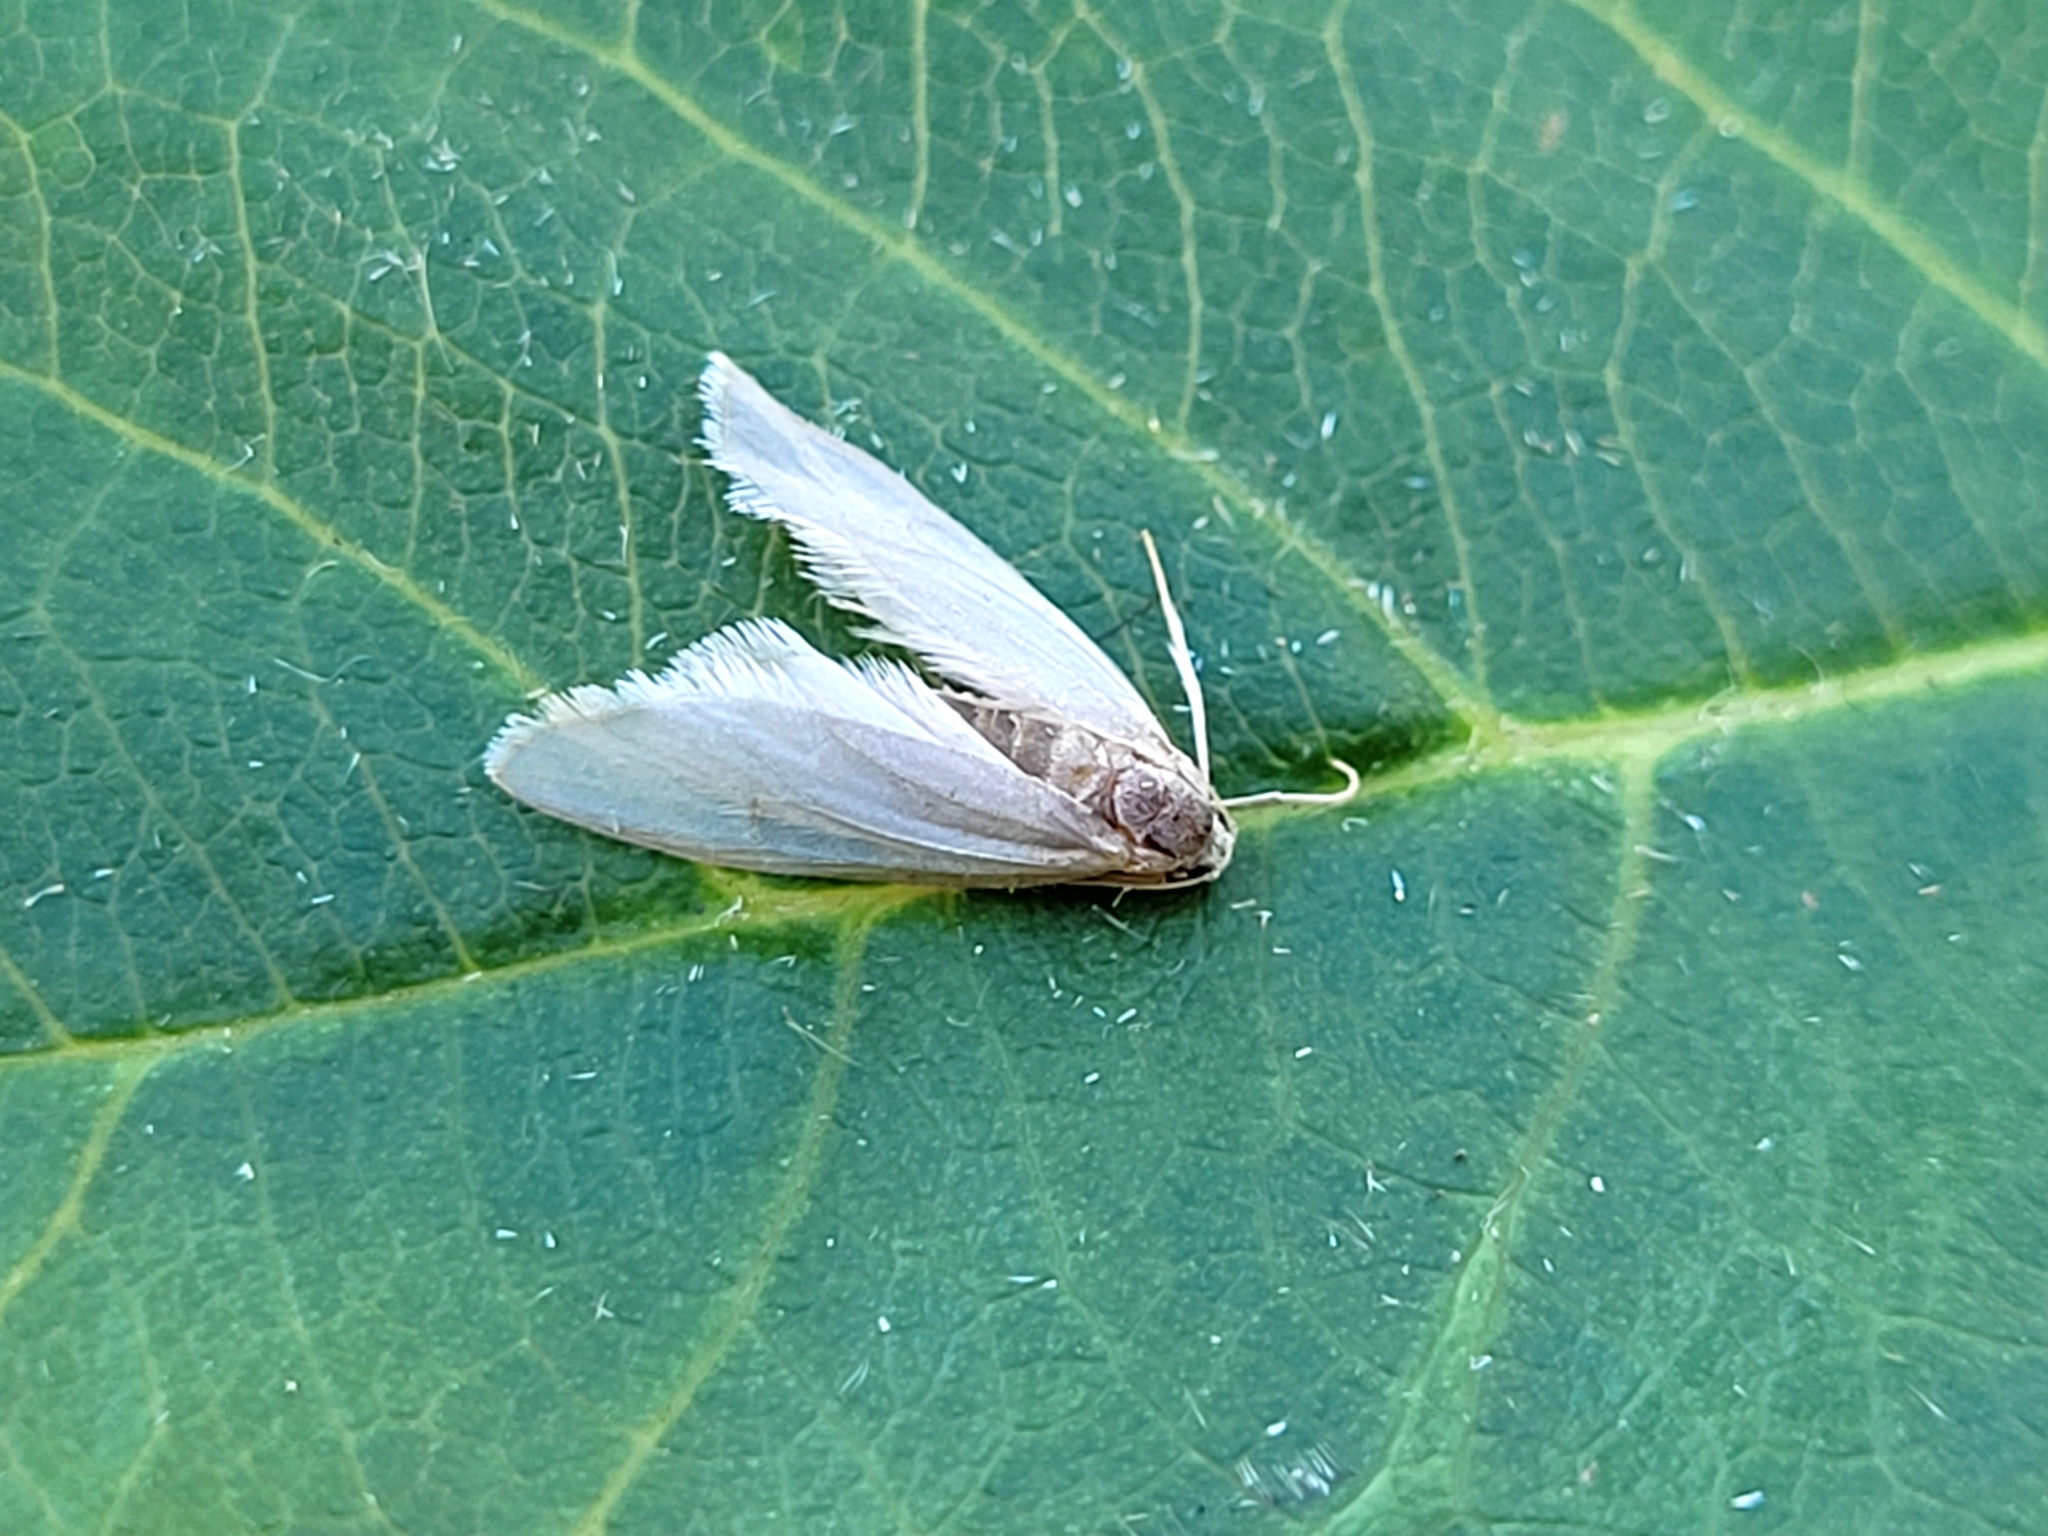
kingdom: Animalia
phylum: Arthropoda
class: Insecta
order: Lepidoptera
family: Crambidae
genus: Acentria
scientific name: Acentria ephemerella
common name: European water moth
